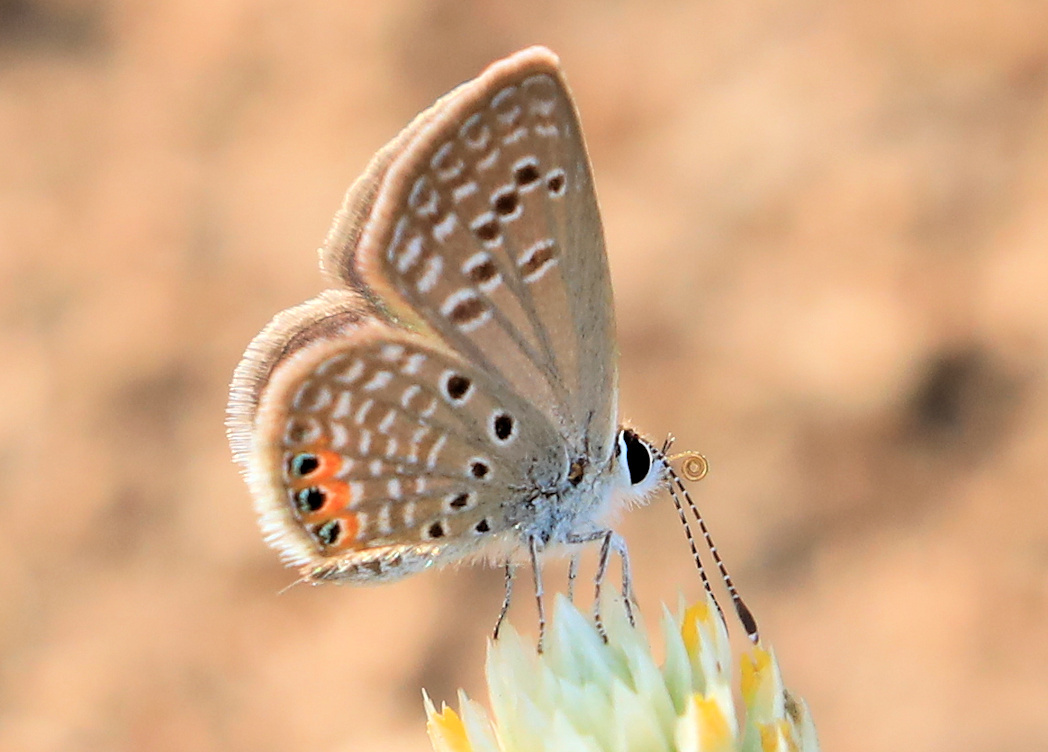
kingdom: Animalia
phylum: Arthropoda
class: Insecta
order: Lepidoptera
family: Lycaenidae
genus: Freyeria
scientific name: Freyeria trochylus
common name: Grass jewel
